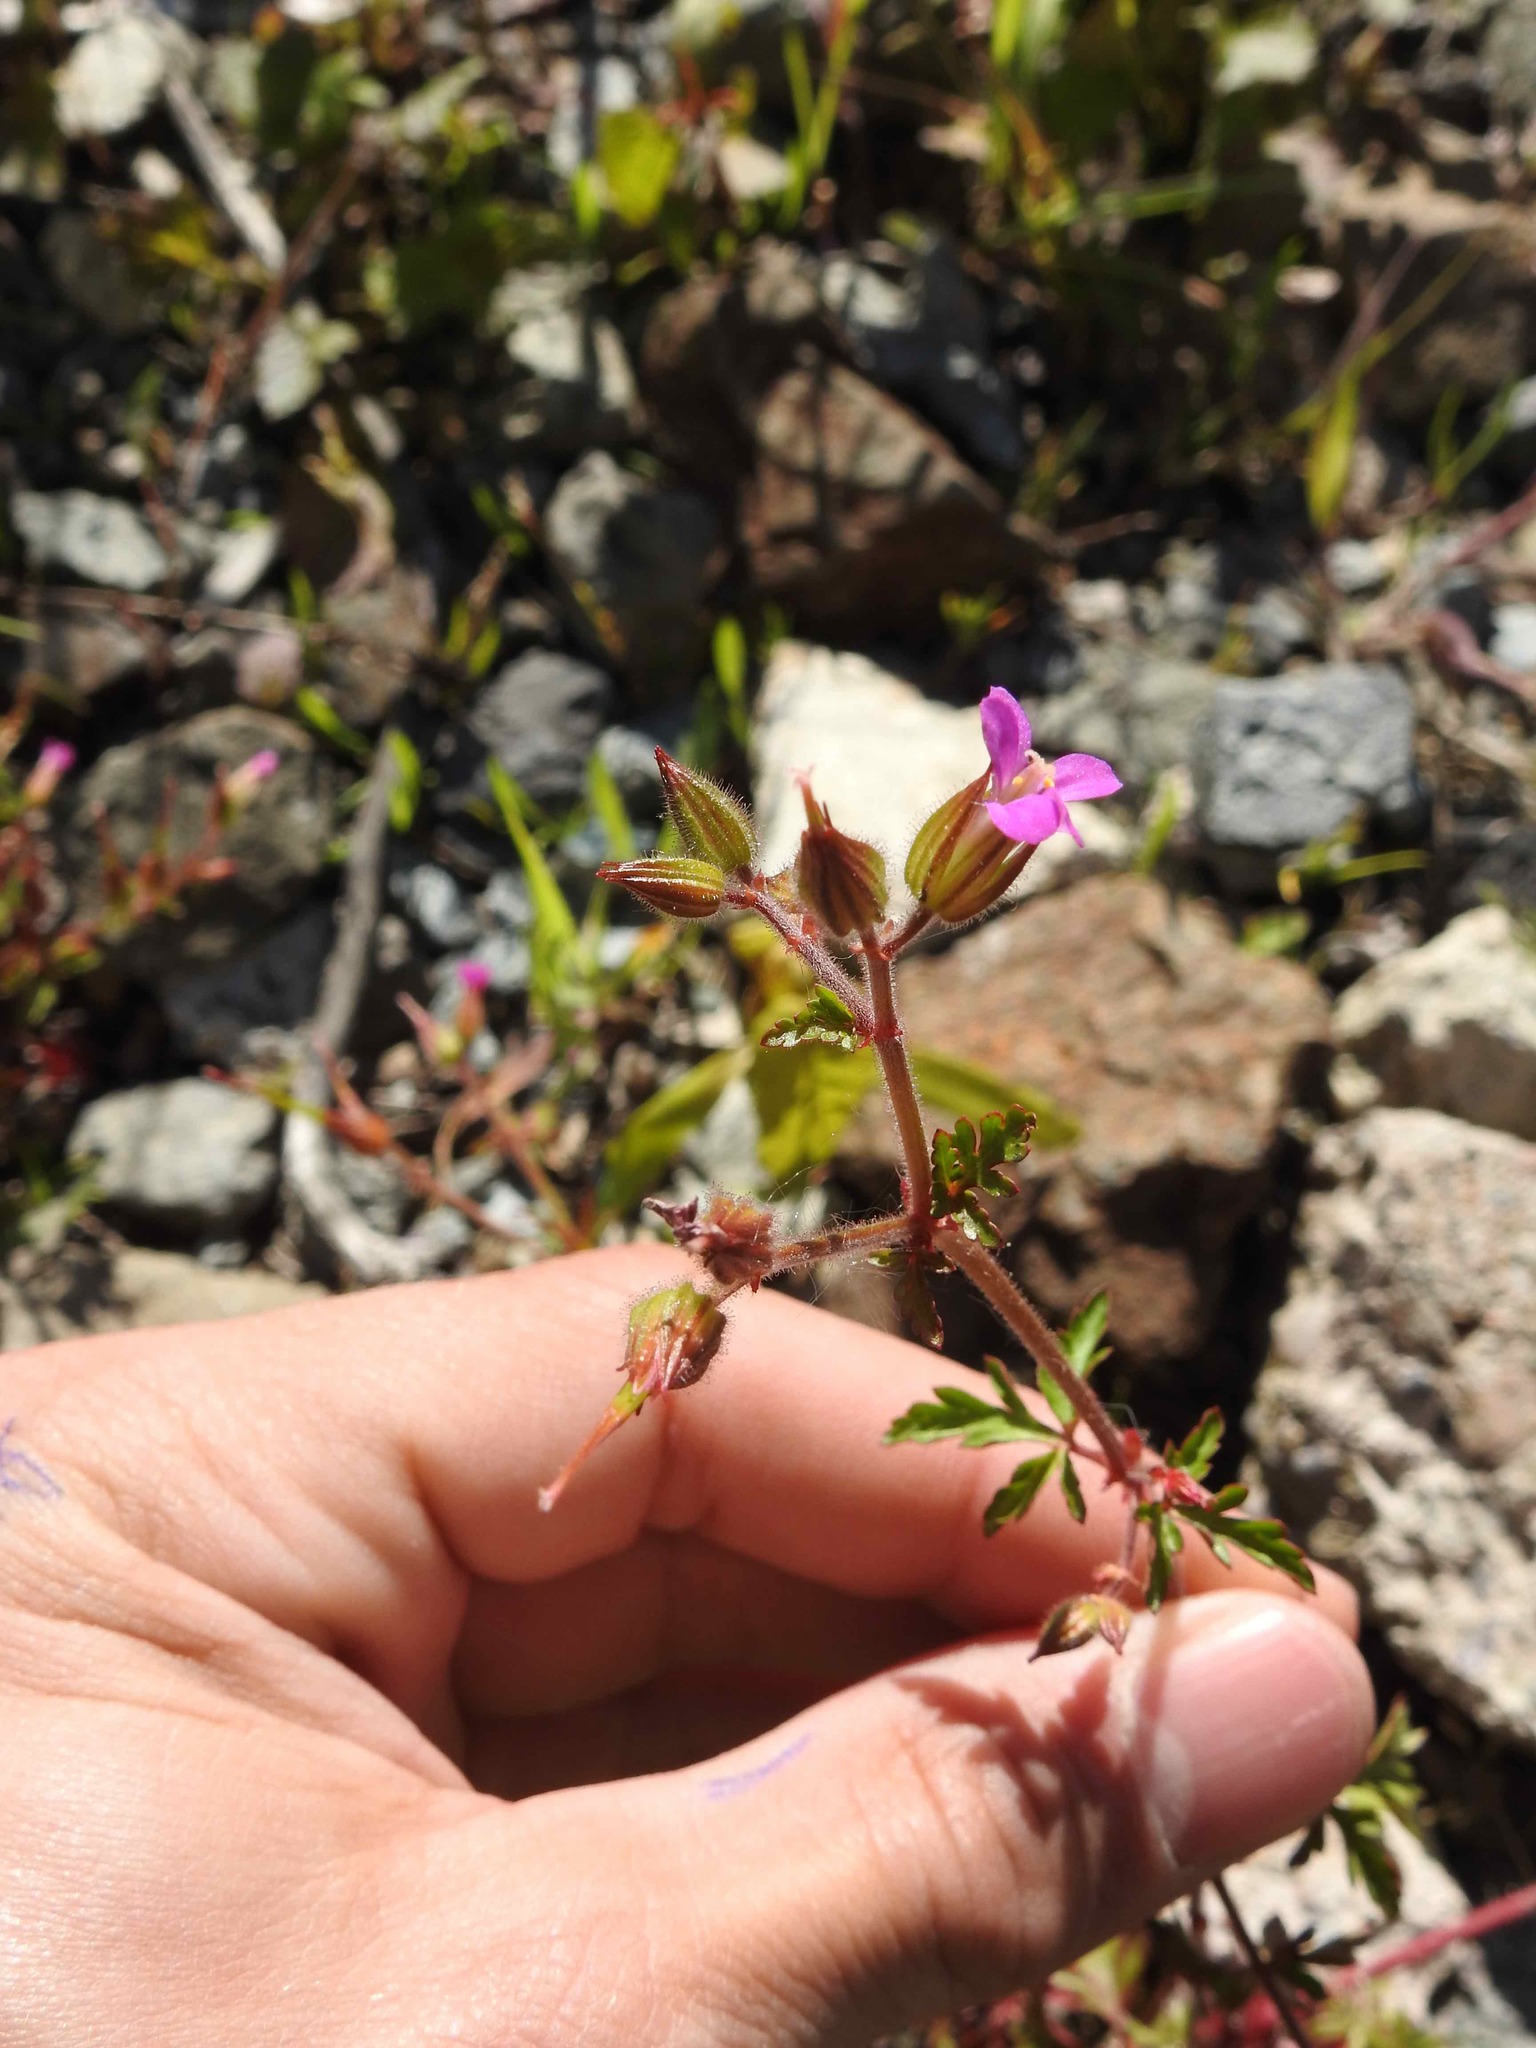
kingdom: Plantae
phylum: Tracheophyta
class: Magnoliopsida
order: Geraniales
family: Geraniaceae
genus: Geranium
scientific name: Geranium purpureum
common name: Little-robin
